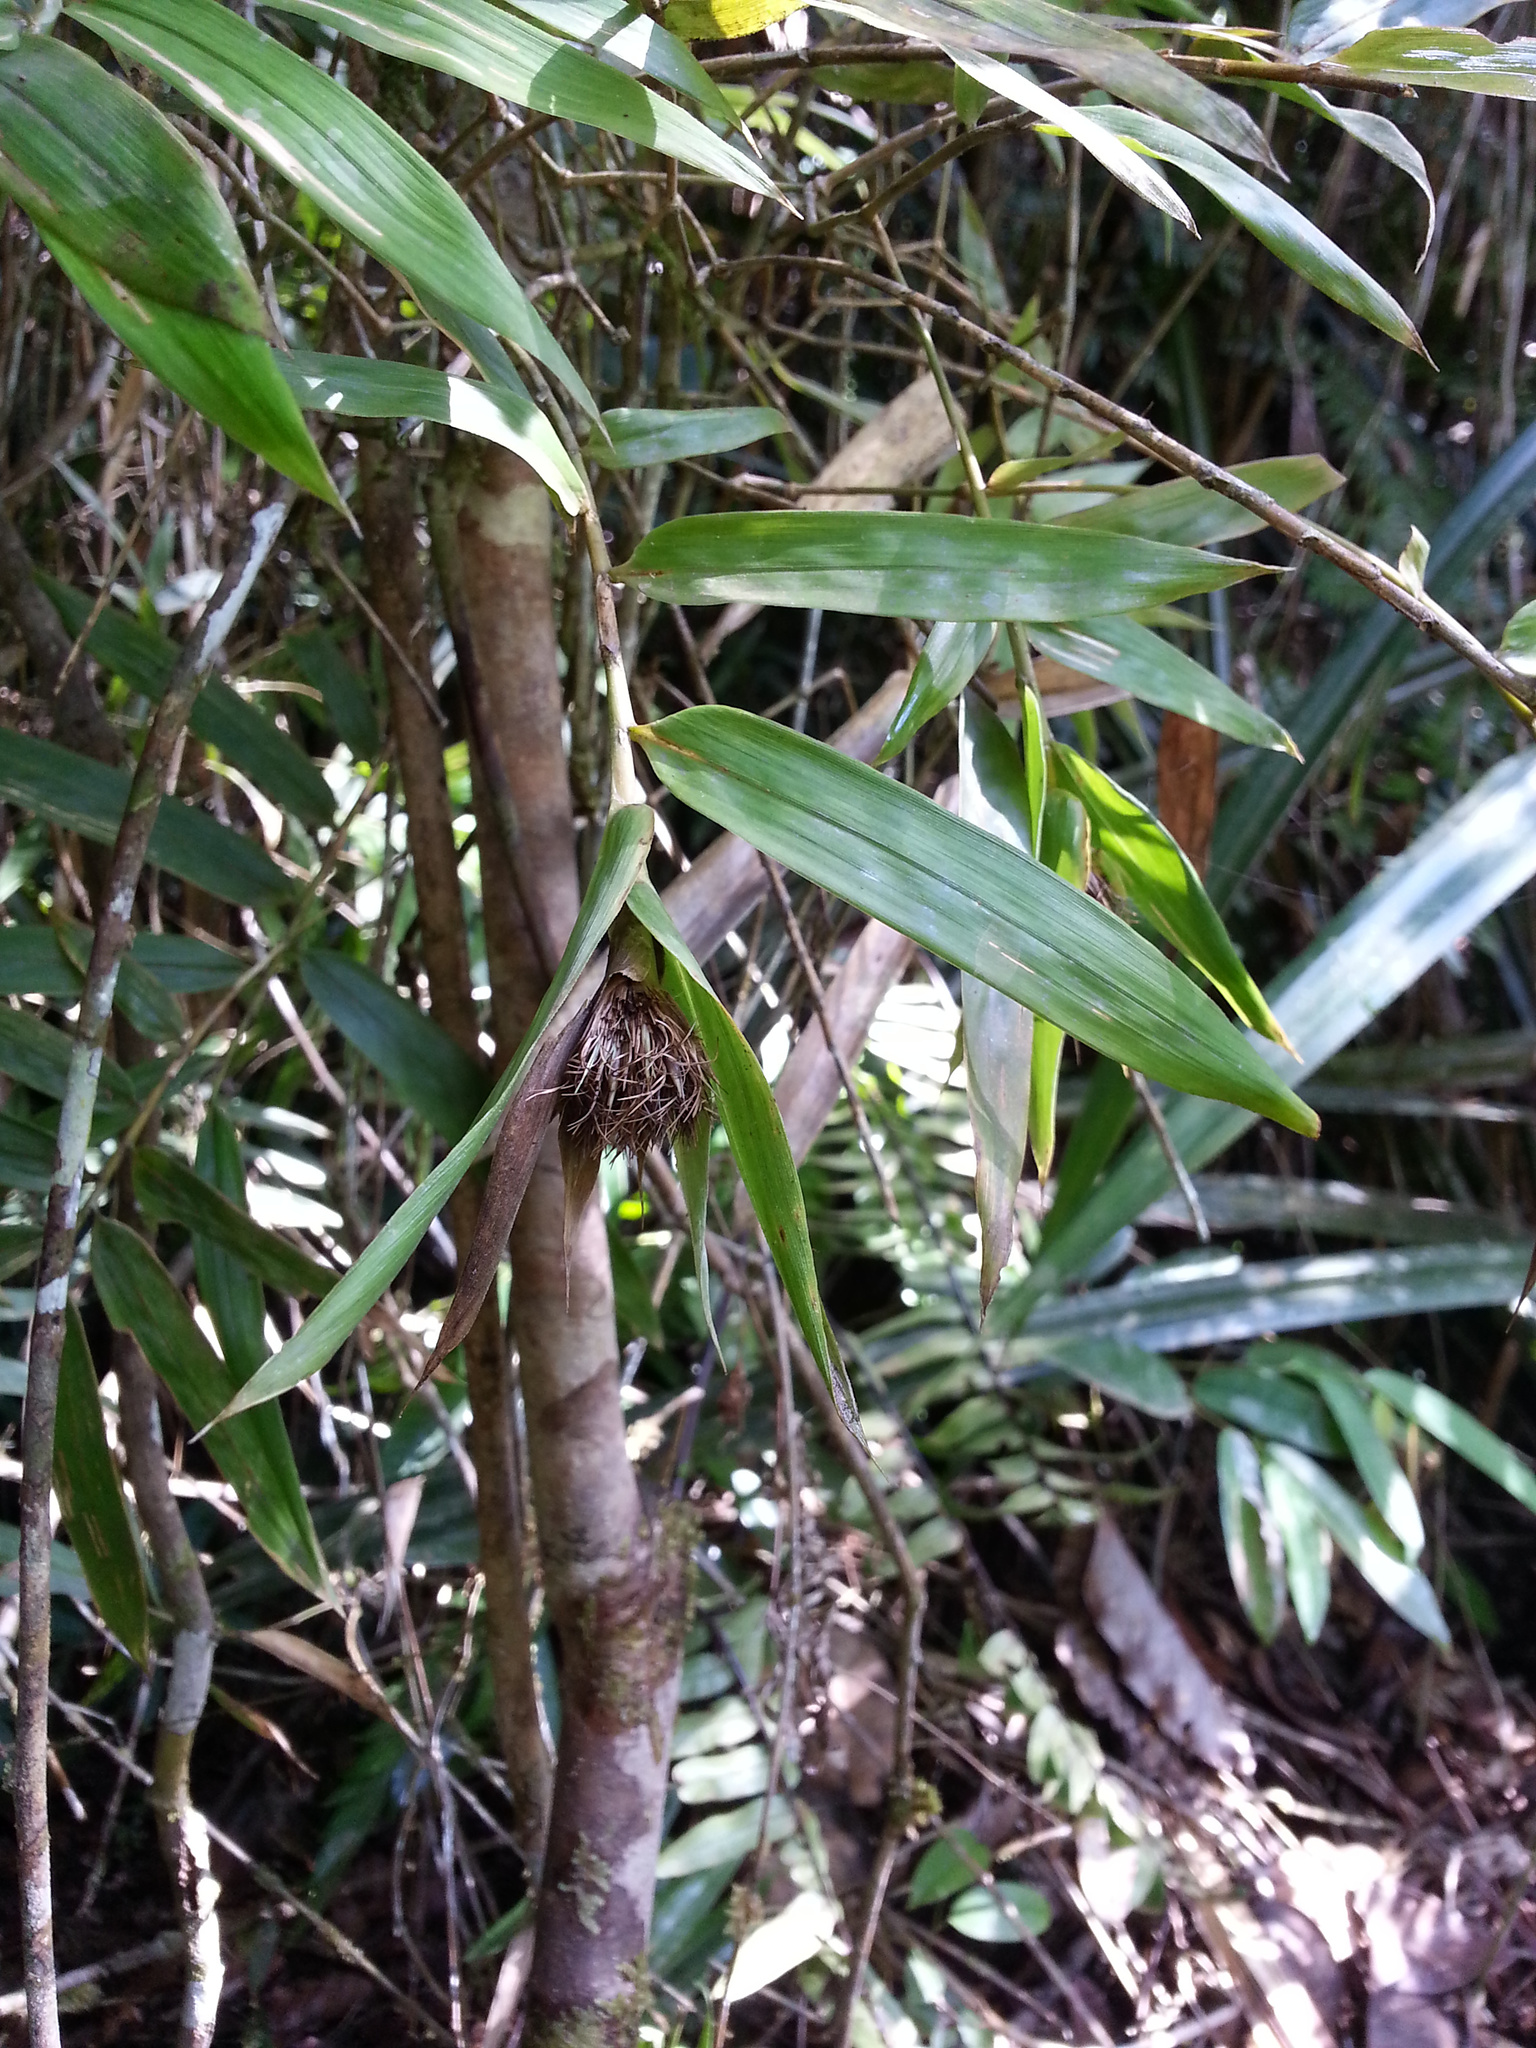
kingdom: Plantae
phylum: Tracheophyta
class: Liliopsida
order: Poales
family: Poaceae
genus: Sokinochloa
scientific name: Sokinochloa viguieri
